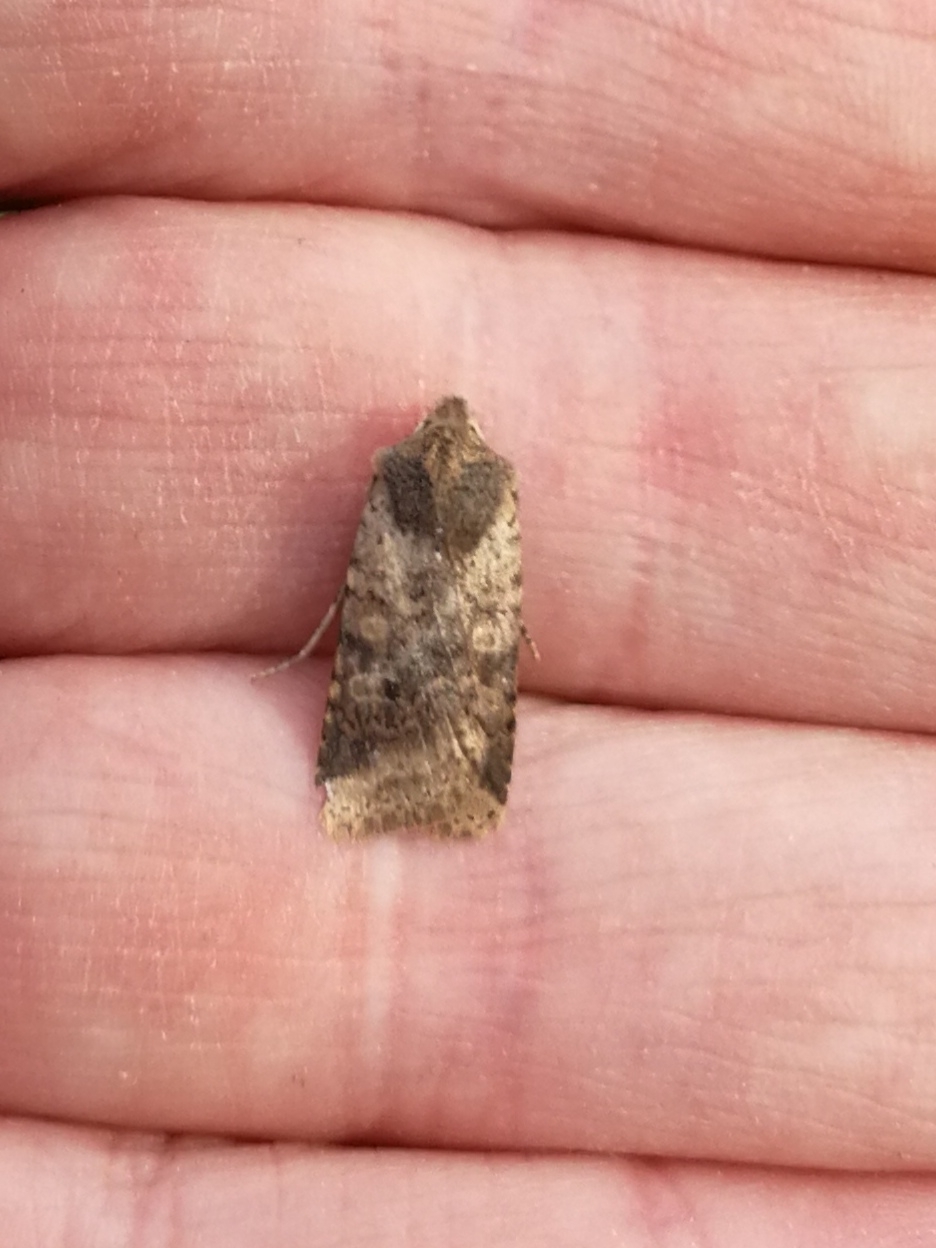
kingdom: Animalia
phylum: Arthropoda
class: Insecta
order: Lepidoptera
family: Noctuidae
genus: Conistra
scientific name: Conistra staudingeri
